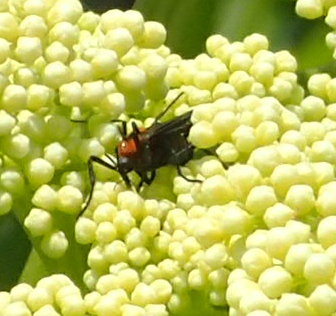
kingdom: Animalia
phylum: Arthropoda
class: Insecta
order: Diptera
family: Bibionidae
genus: Plecia
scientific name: Plecia nearctica
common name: March fly
